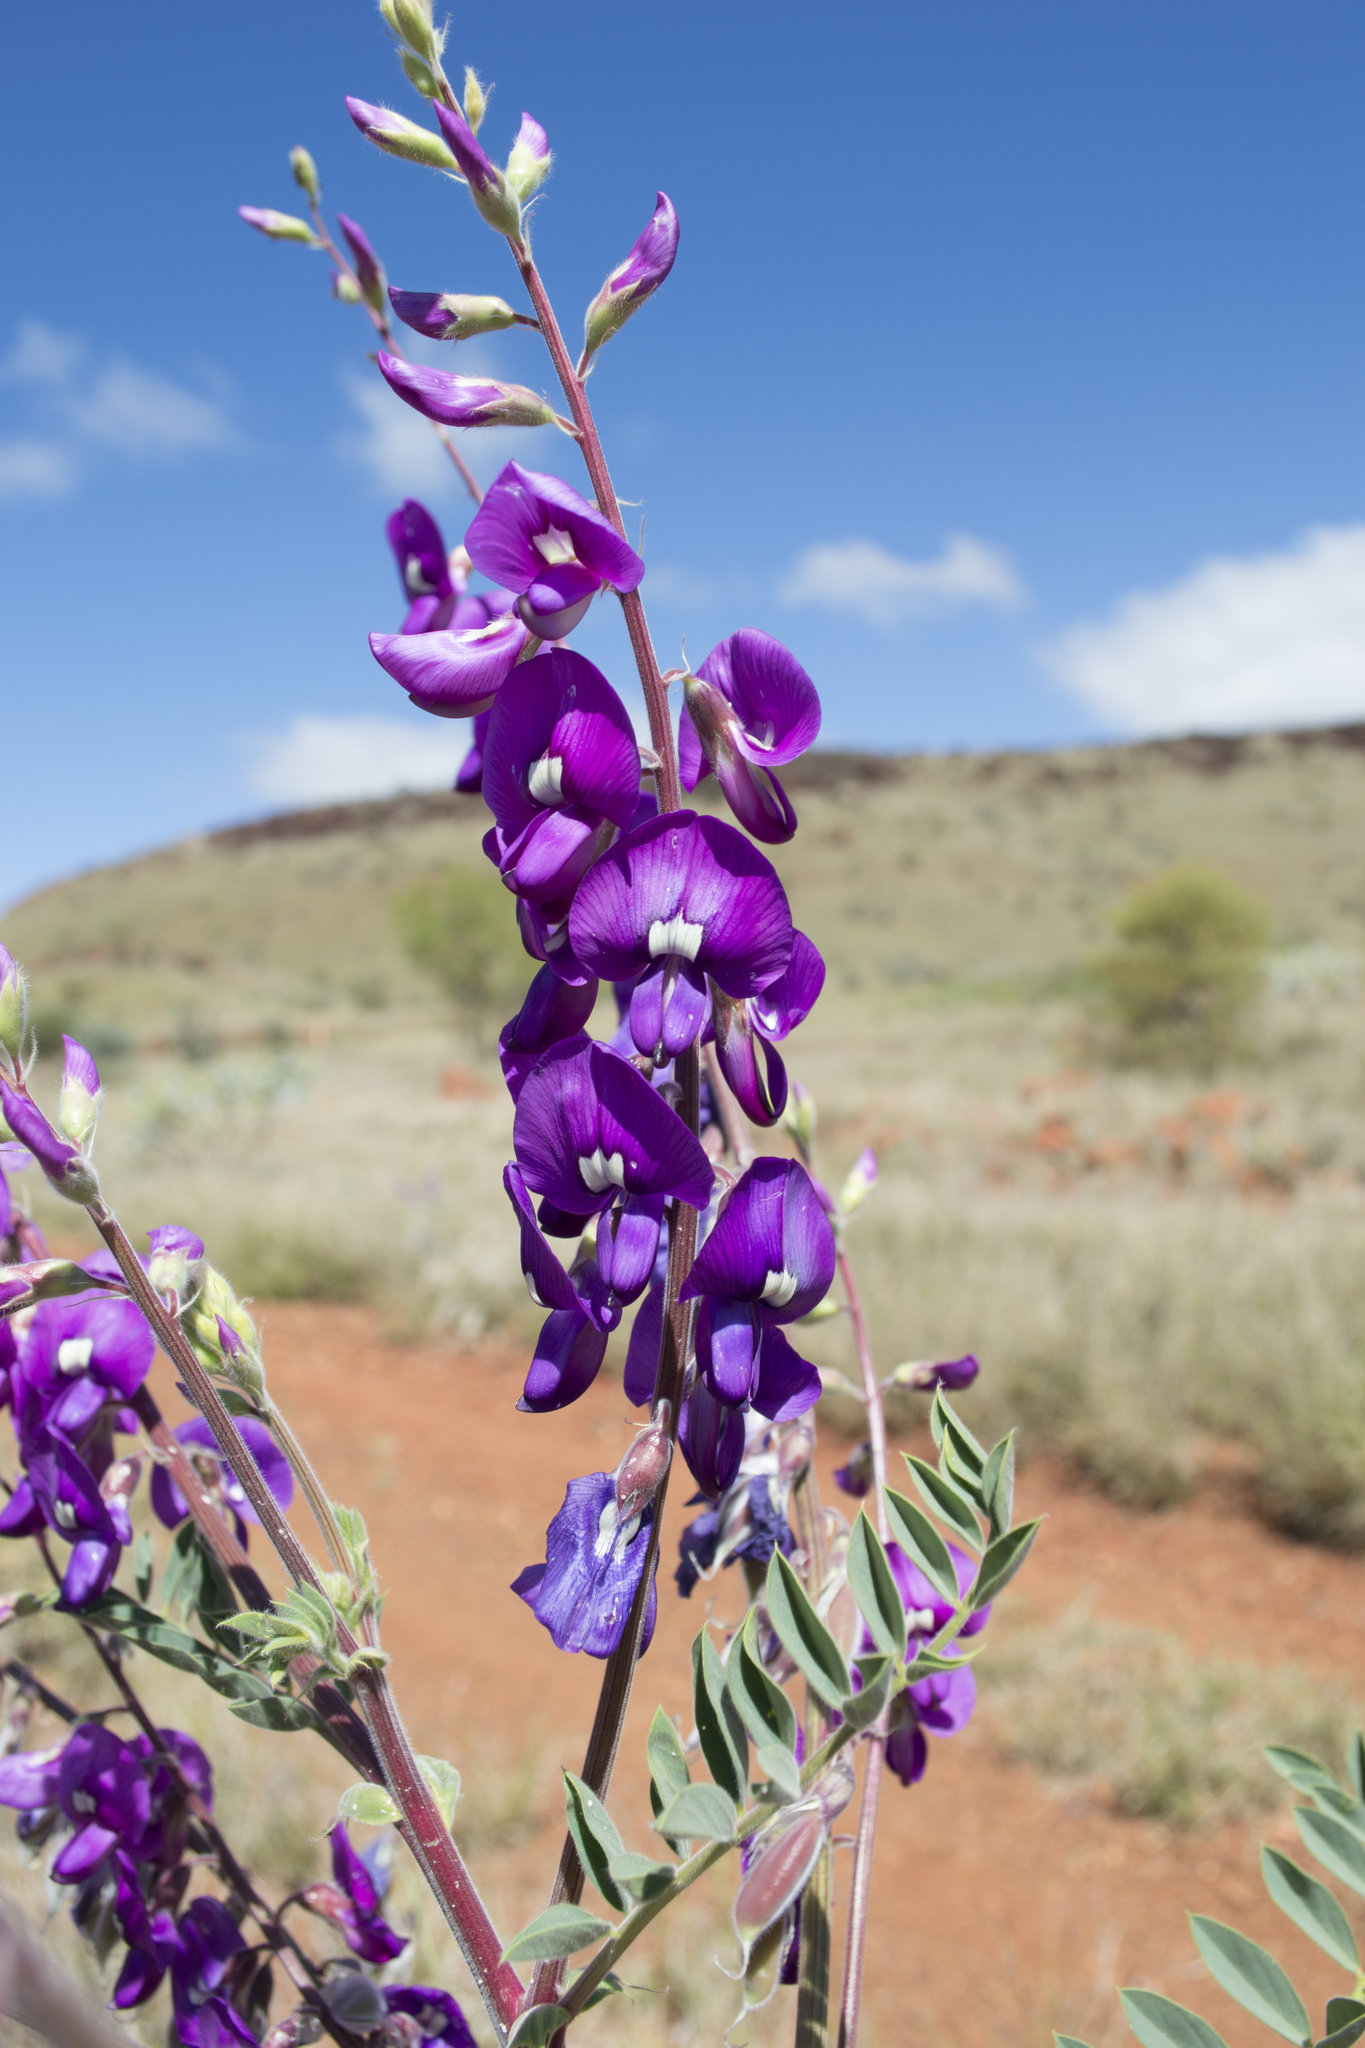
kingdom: Plantae
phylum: Tracheophyta
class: Magnoliopsida
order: Fabales
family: Fabaceae
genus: Swainsona
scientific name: Swainsona maccullochiana
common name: Ashburton-pea
